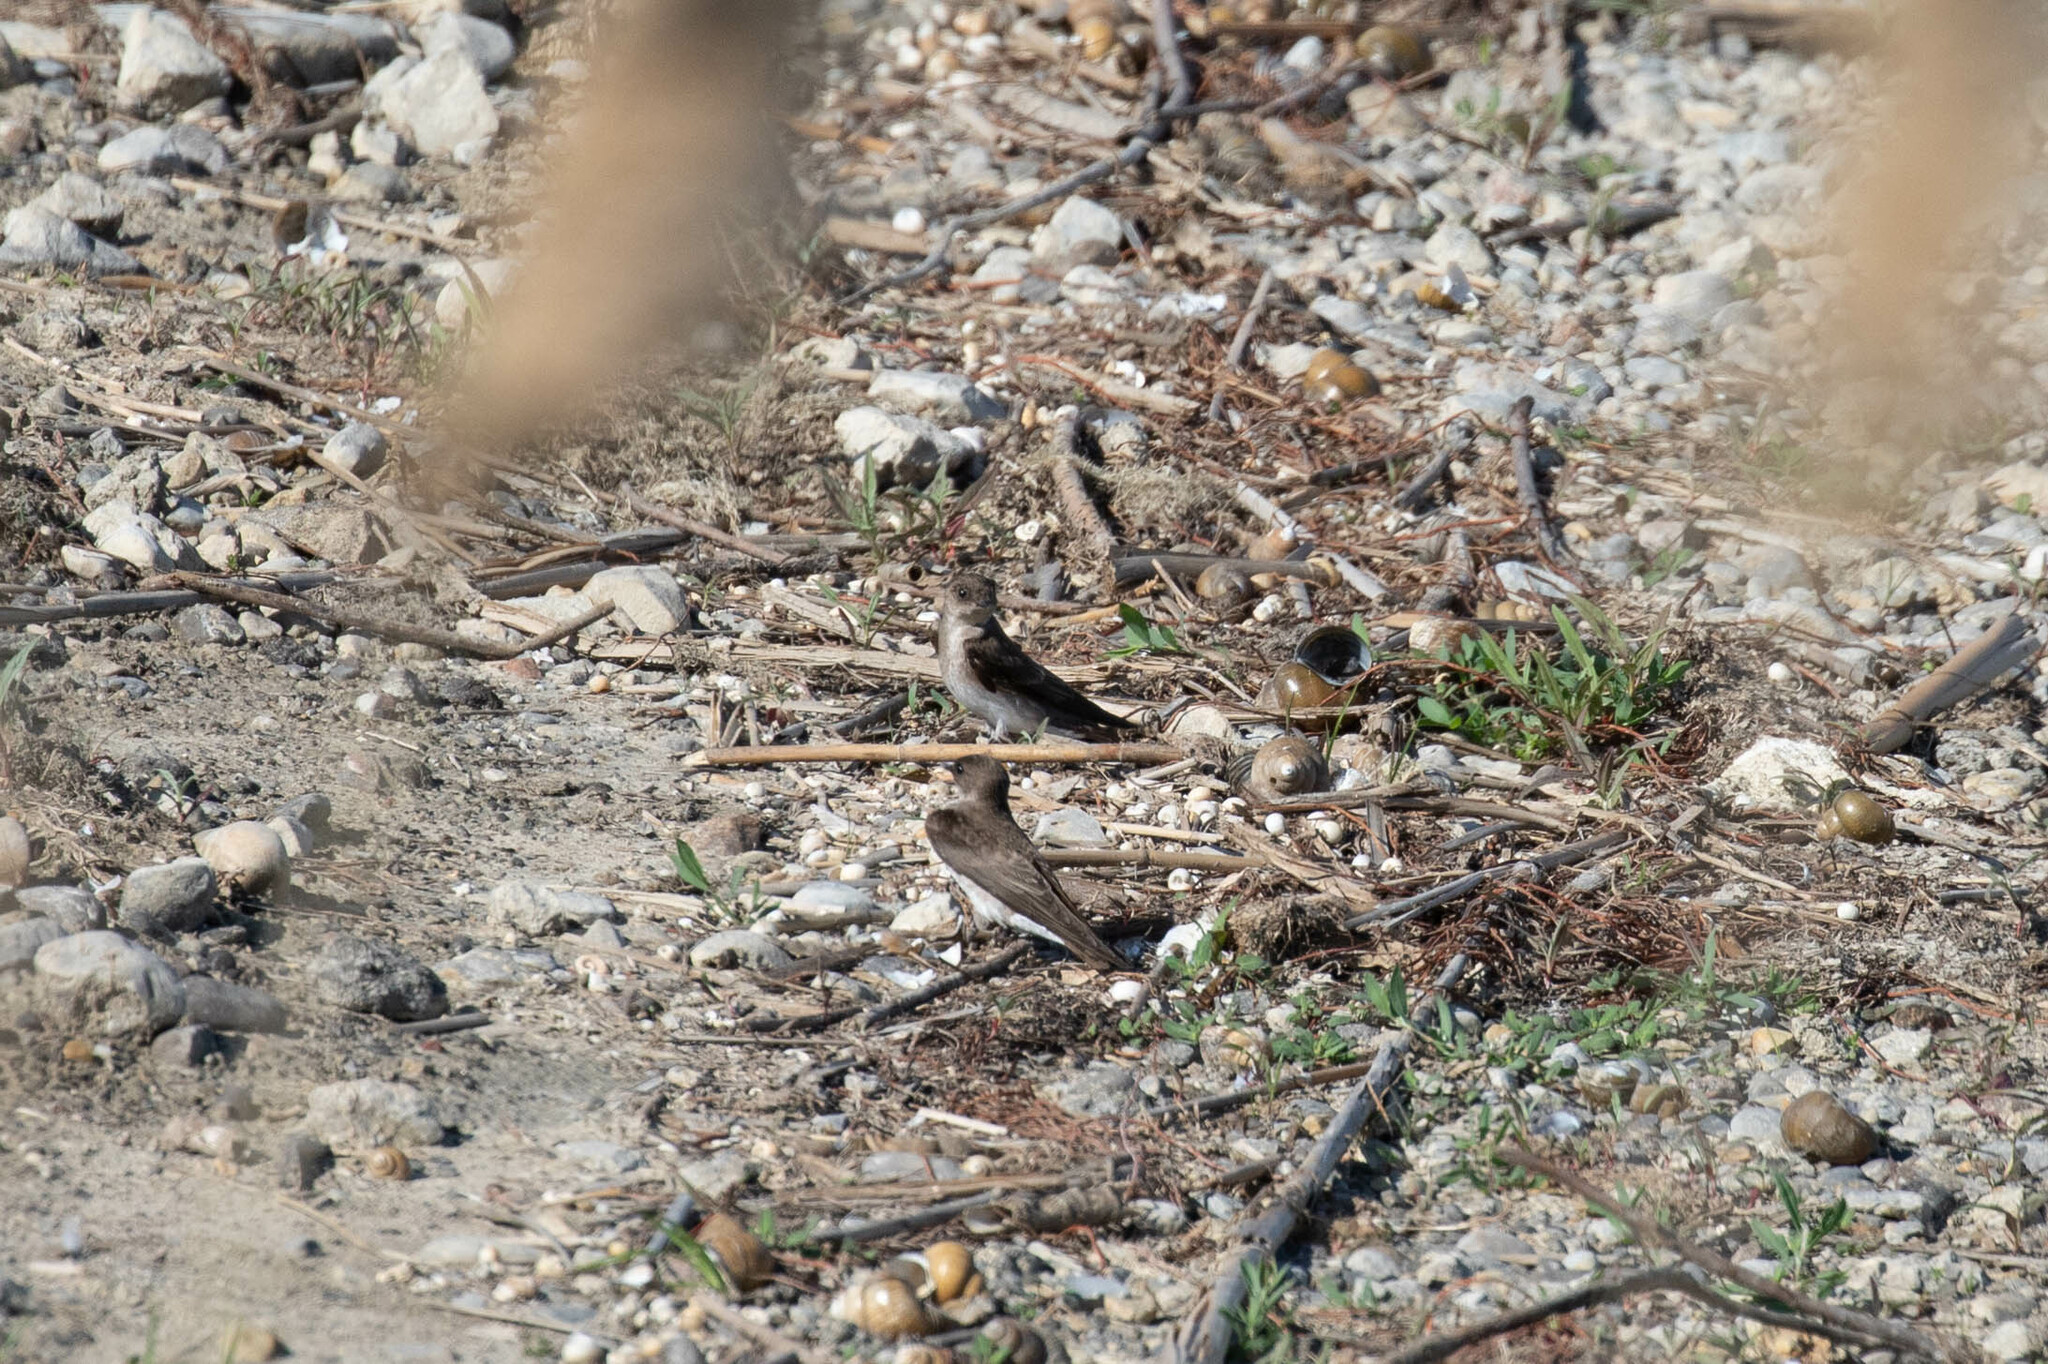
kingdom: Animalia
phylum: Chordata
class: Aves
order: Passeriformes
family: Hirundinidae
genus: Stelgidopteryx
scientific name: Stelgidopteryx serripennis
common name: Northern rough-winged swallow
